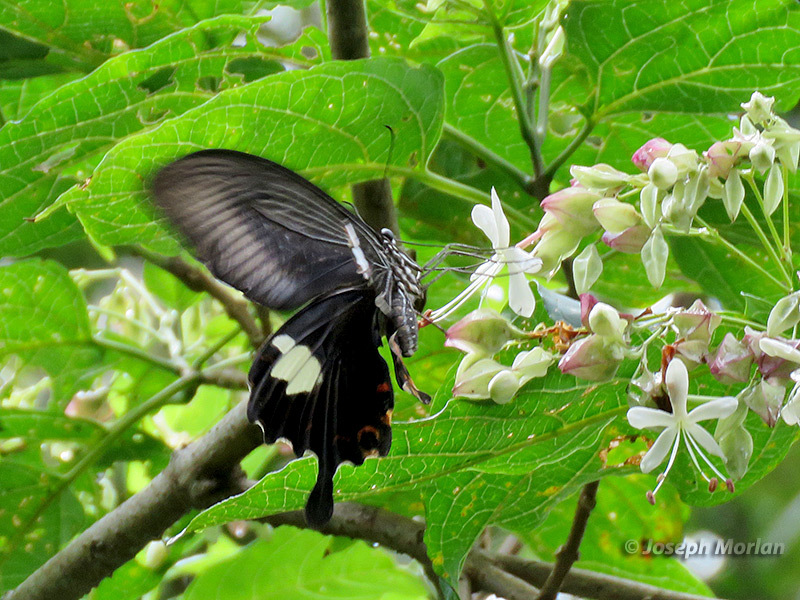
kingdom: Animalia
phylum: Arthropoda
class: Insecta
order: Lepidoptera
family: Papilionidae
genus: Papilio
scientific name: Papilio helenus
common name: Red helen
